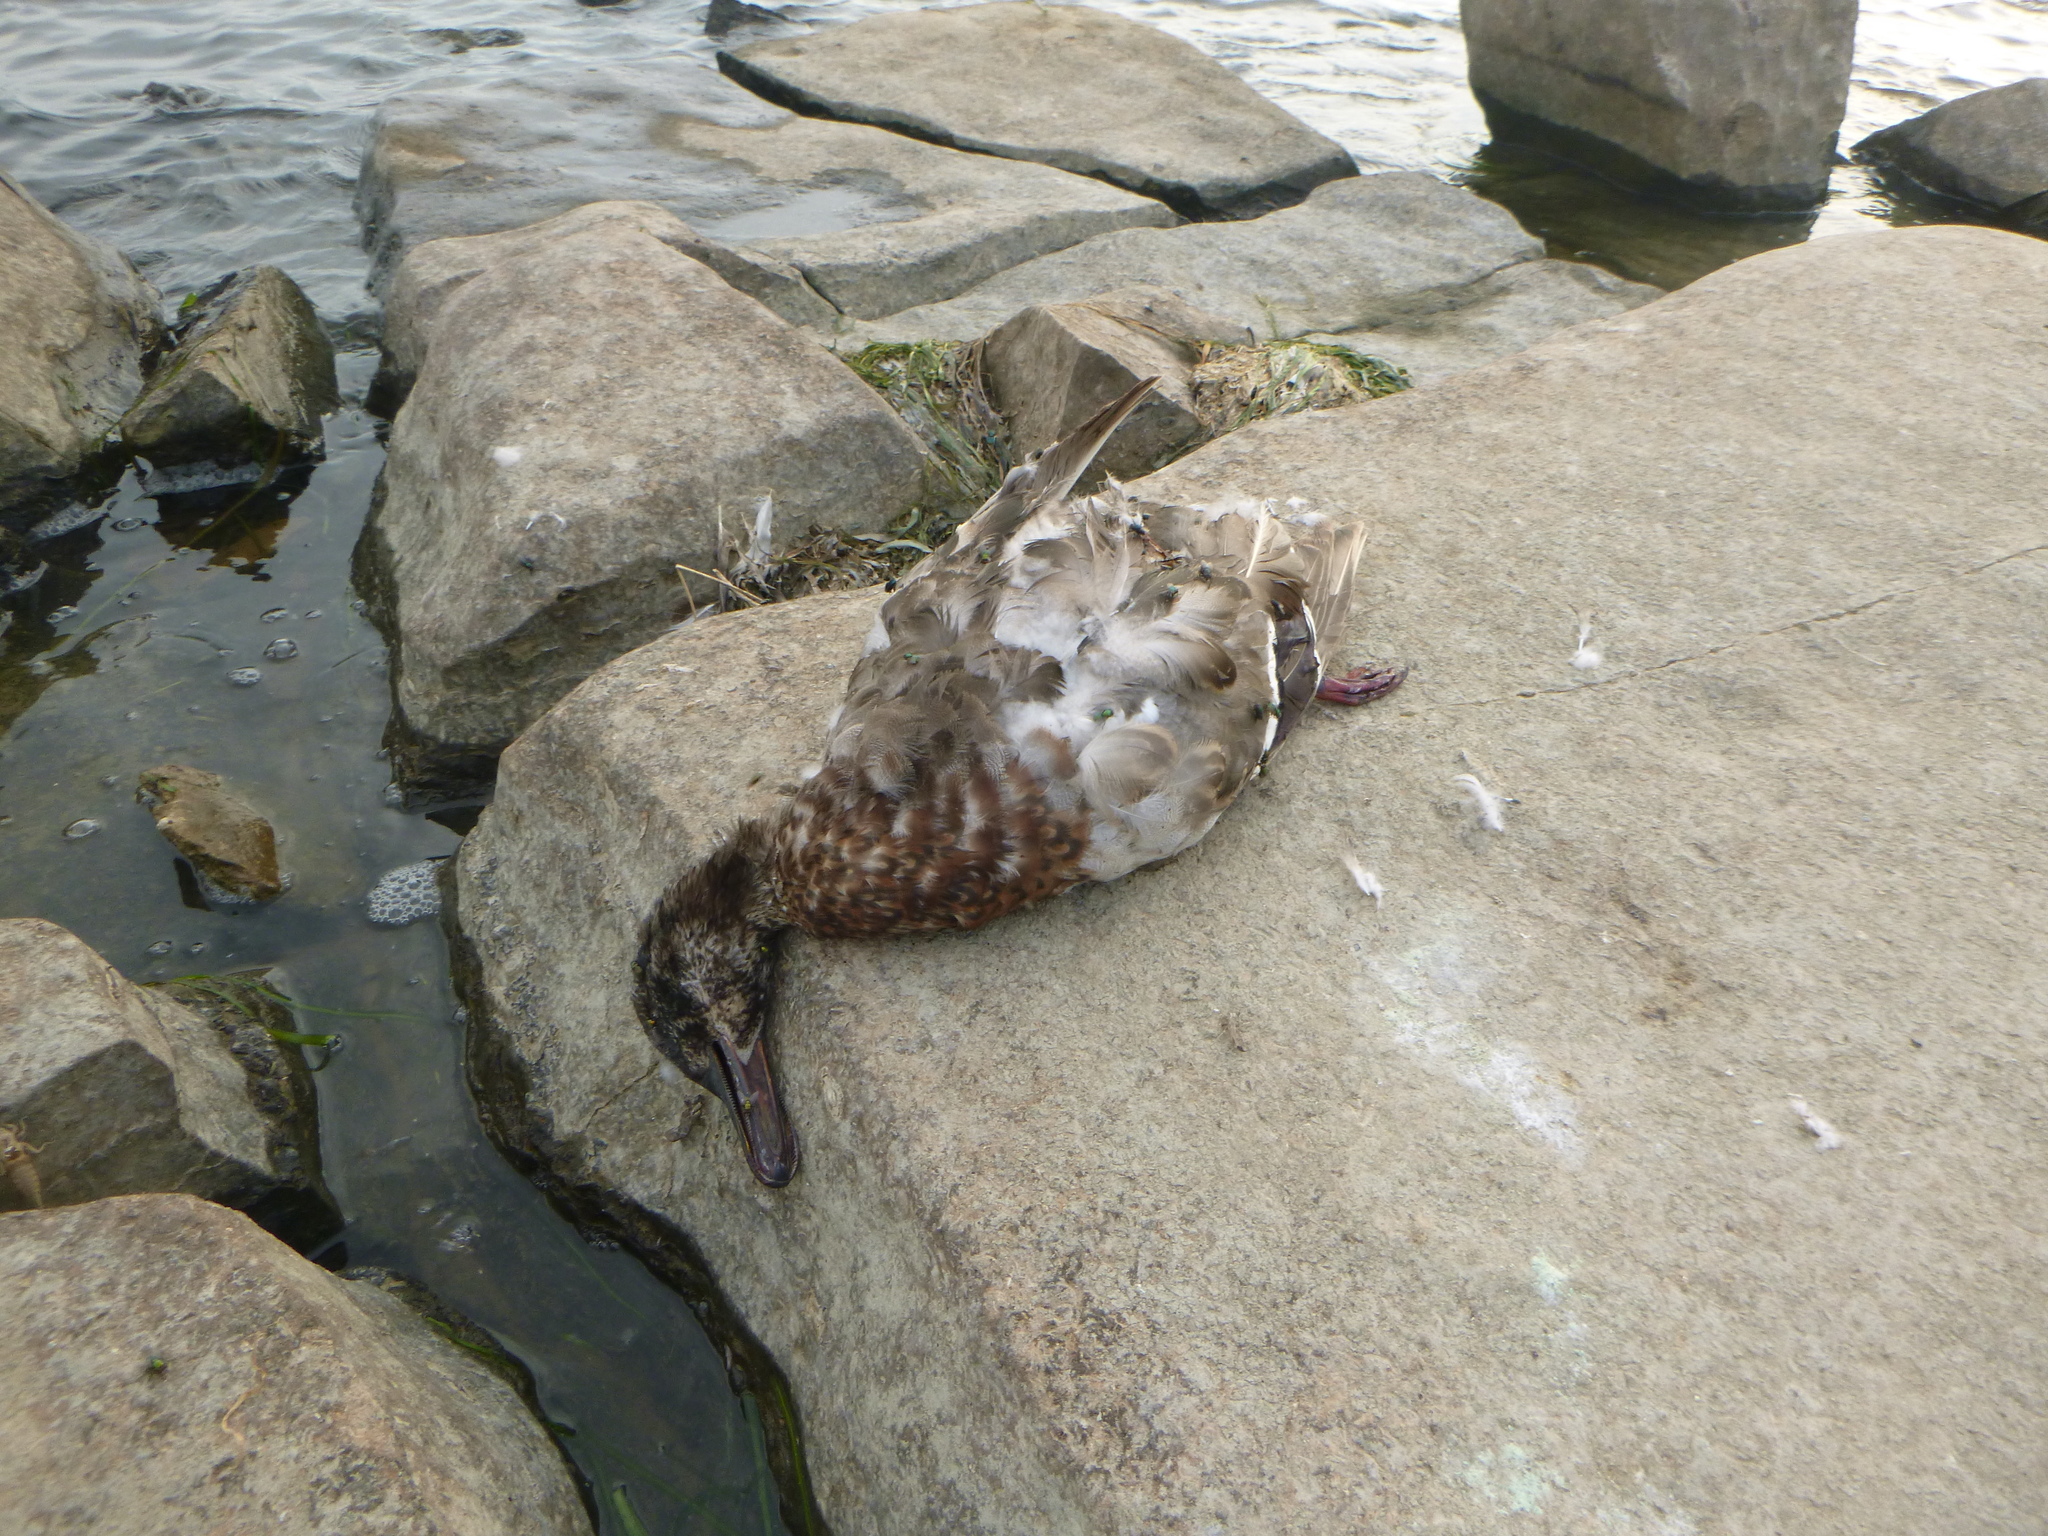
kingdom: Animalia
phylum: Chordata
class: Aves
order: Anseriformes
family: Anatidae
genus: Anas
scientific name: Anas platyrhynchos
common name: Mallard
